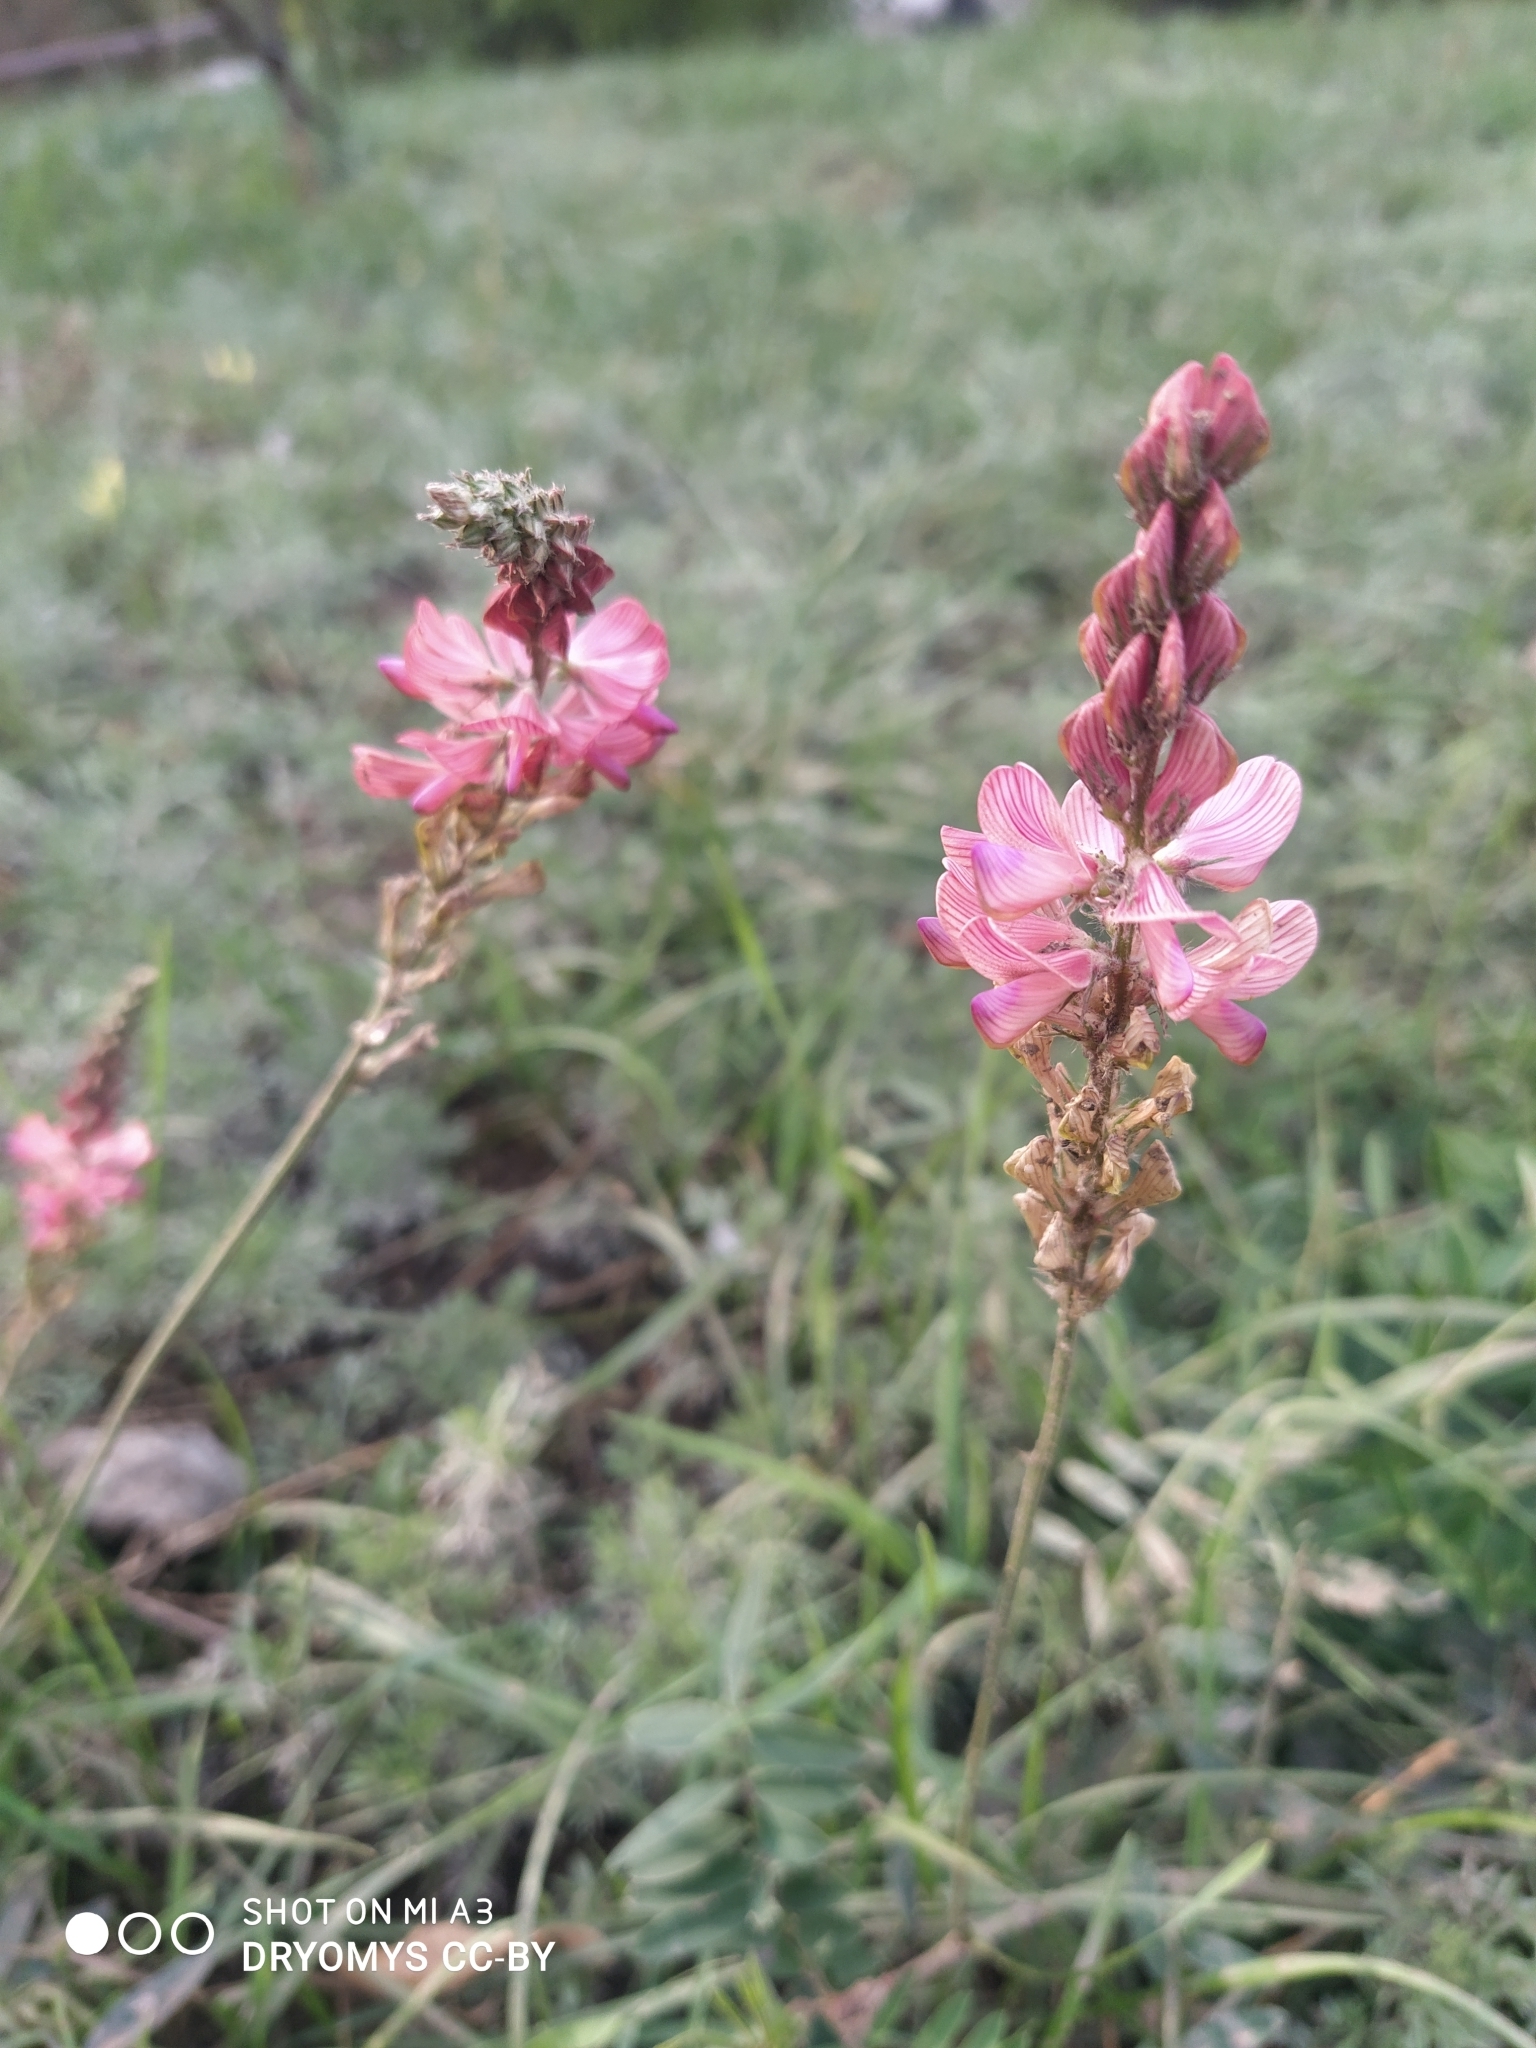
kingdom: Plantae
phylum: Tracheophyta
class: Magnoliopsida
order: Fabales
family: Fabaceae
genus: Onobrychis
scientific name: Onobrychis arenaria
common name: Sand esparcet
